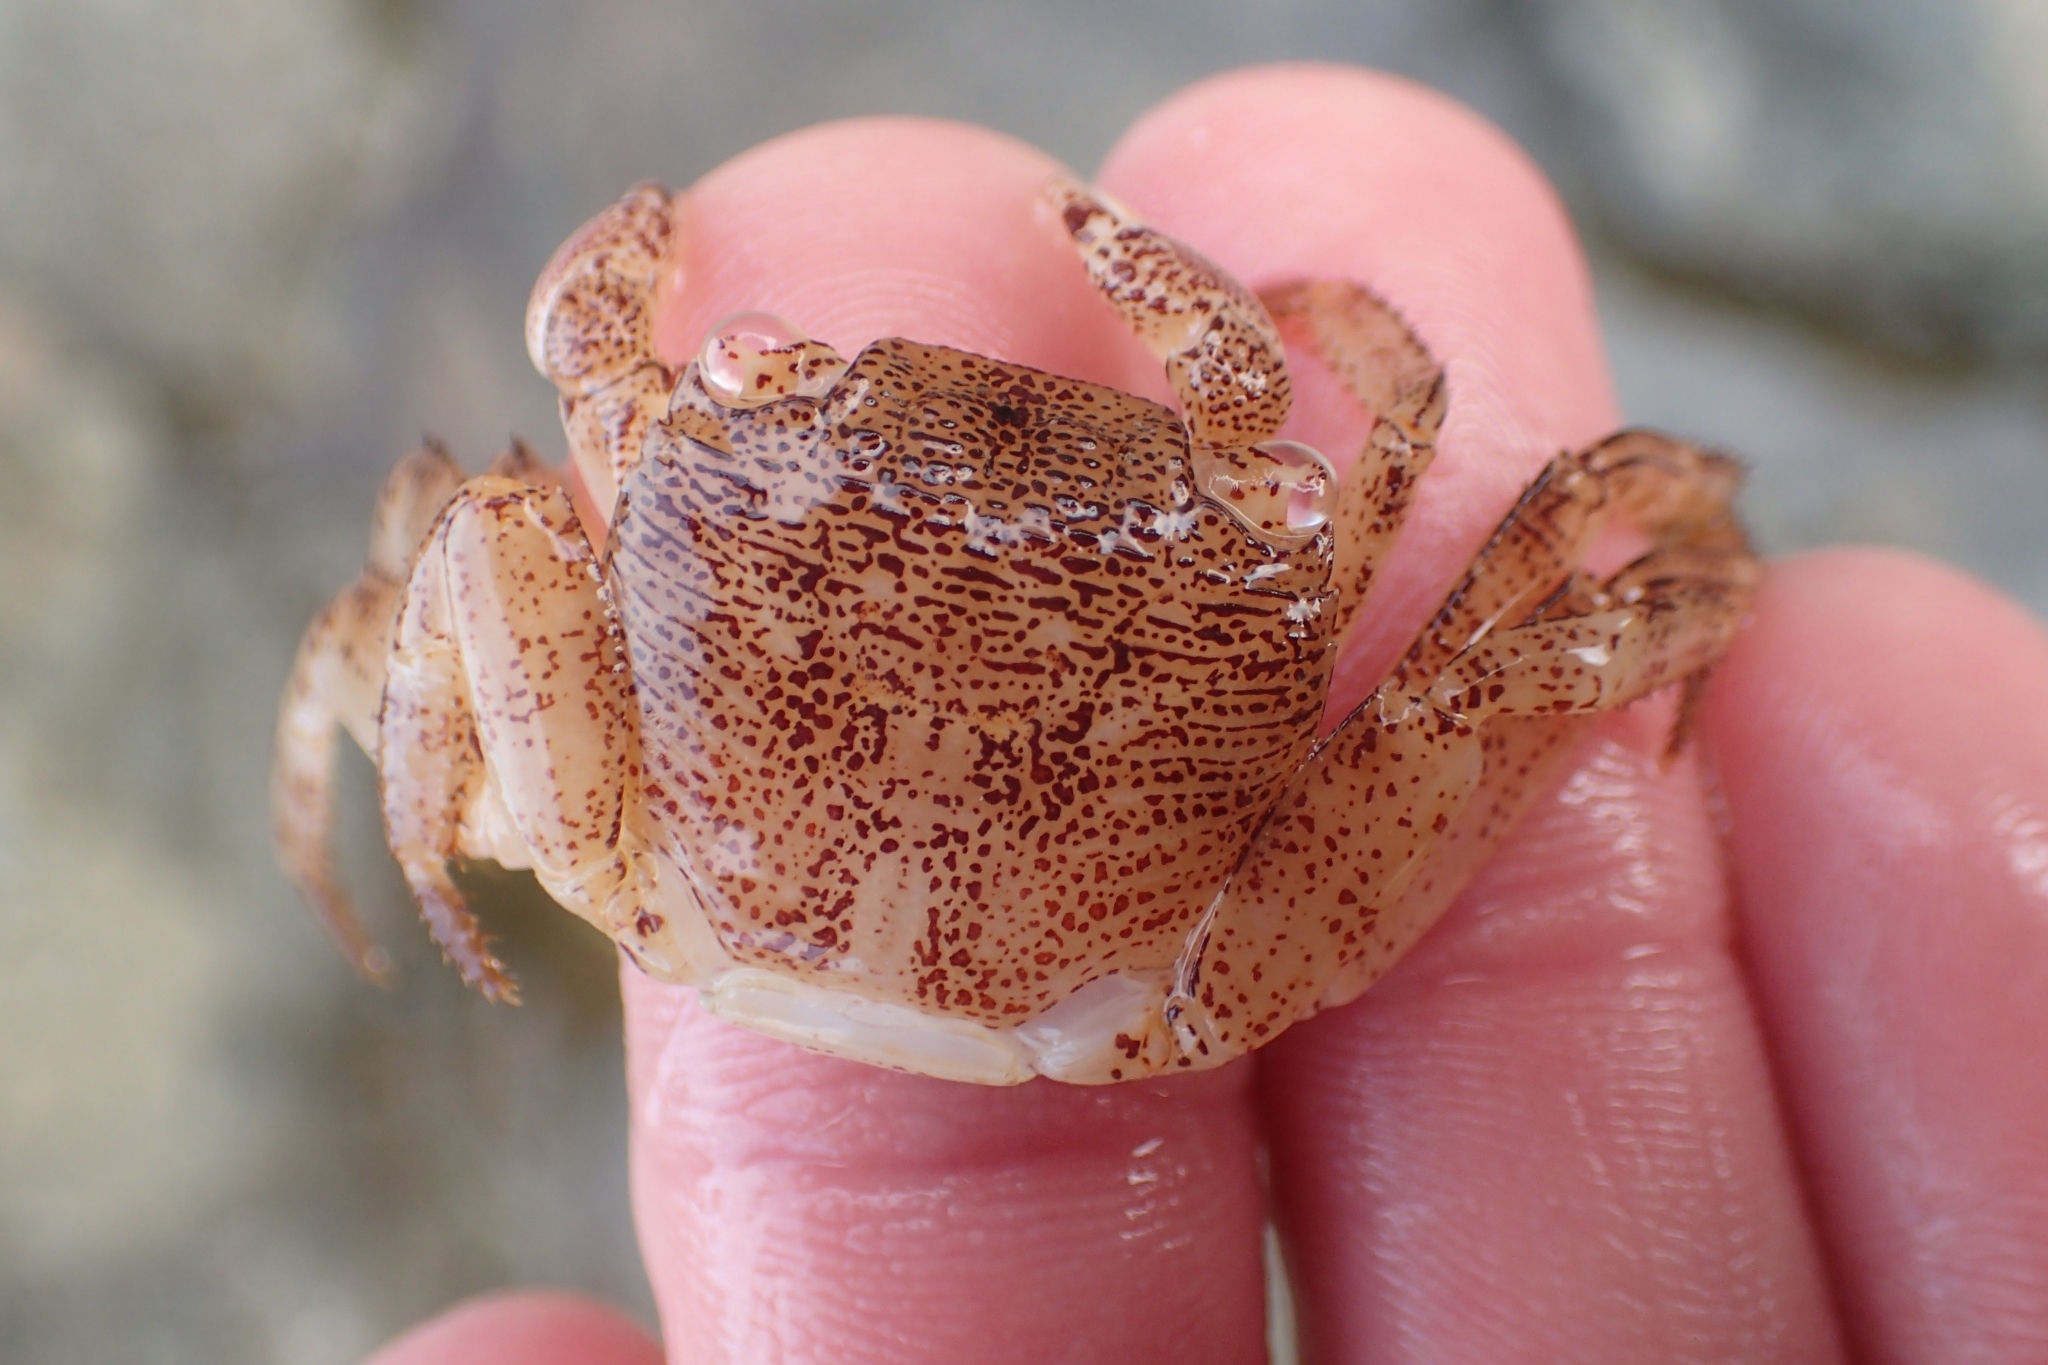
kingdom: Animalia
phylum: Arthropoda
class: Malacostraca
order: Decapoda
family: Grapsidae
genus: Leptograpsus
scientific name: Leptograpsus variegatus
